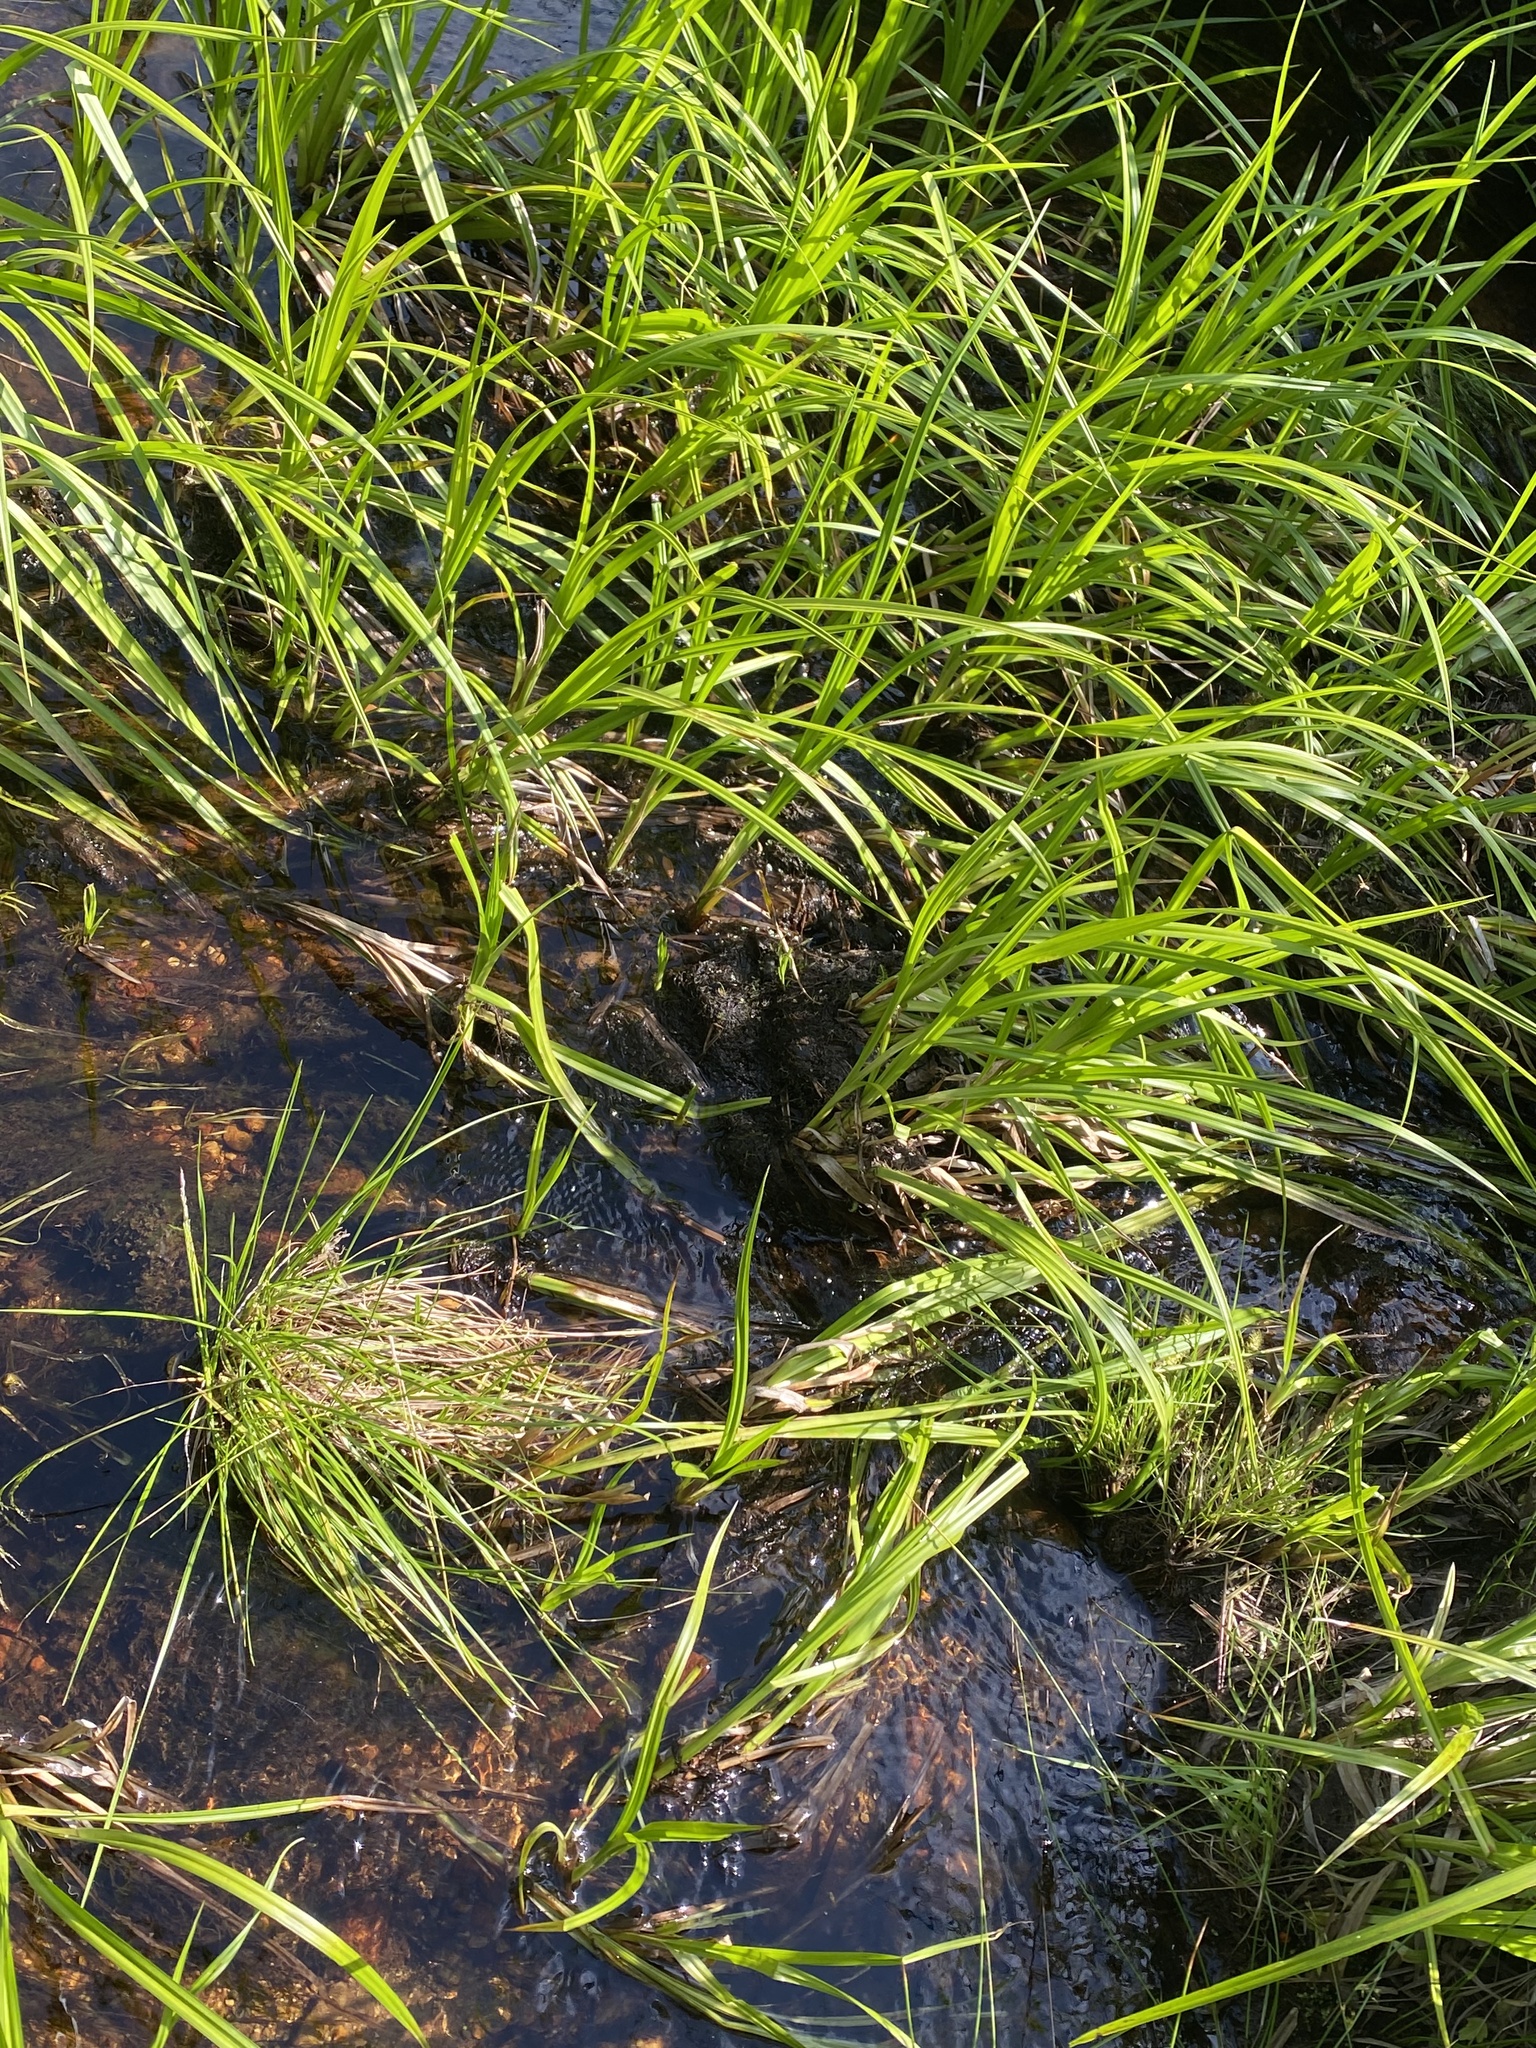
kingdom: Plantae
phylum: Tracheophyta
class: Liliopsida
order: Poales
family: Cyperaceae
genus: Scirpus
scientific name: Scirpus sylvaticus
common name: Wood club-rush
